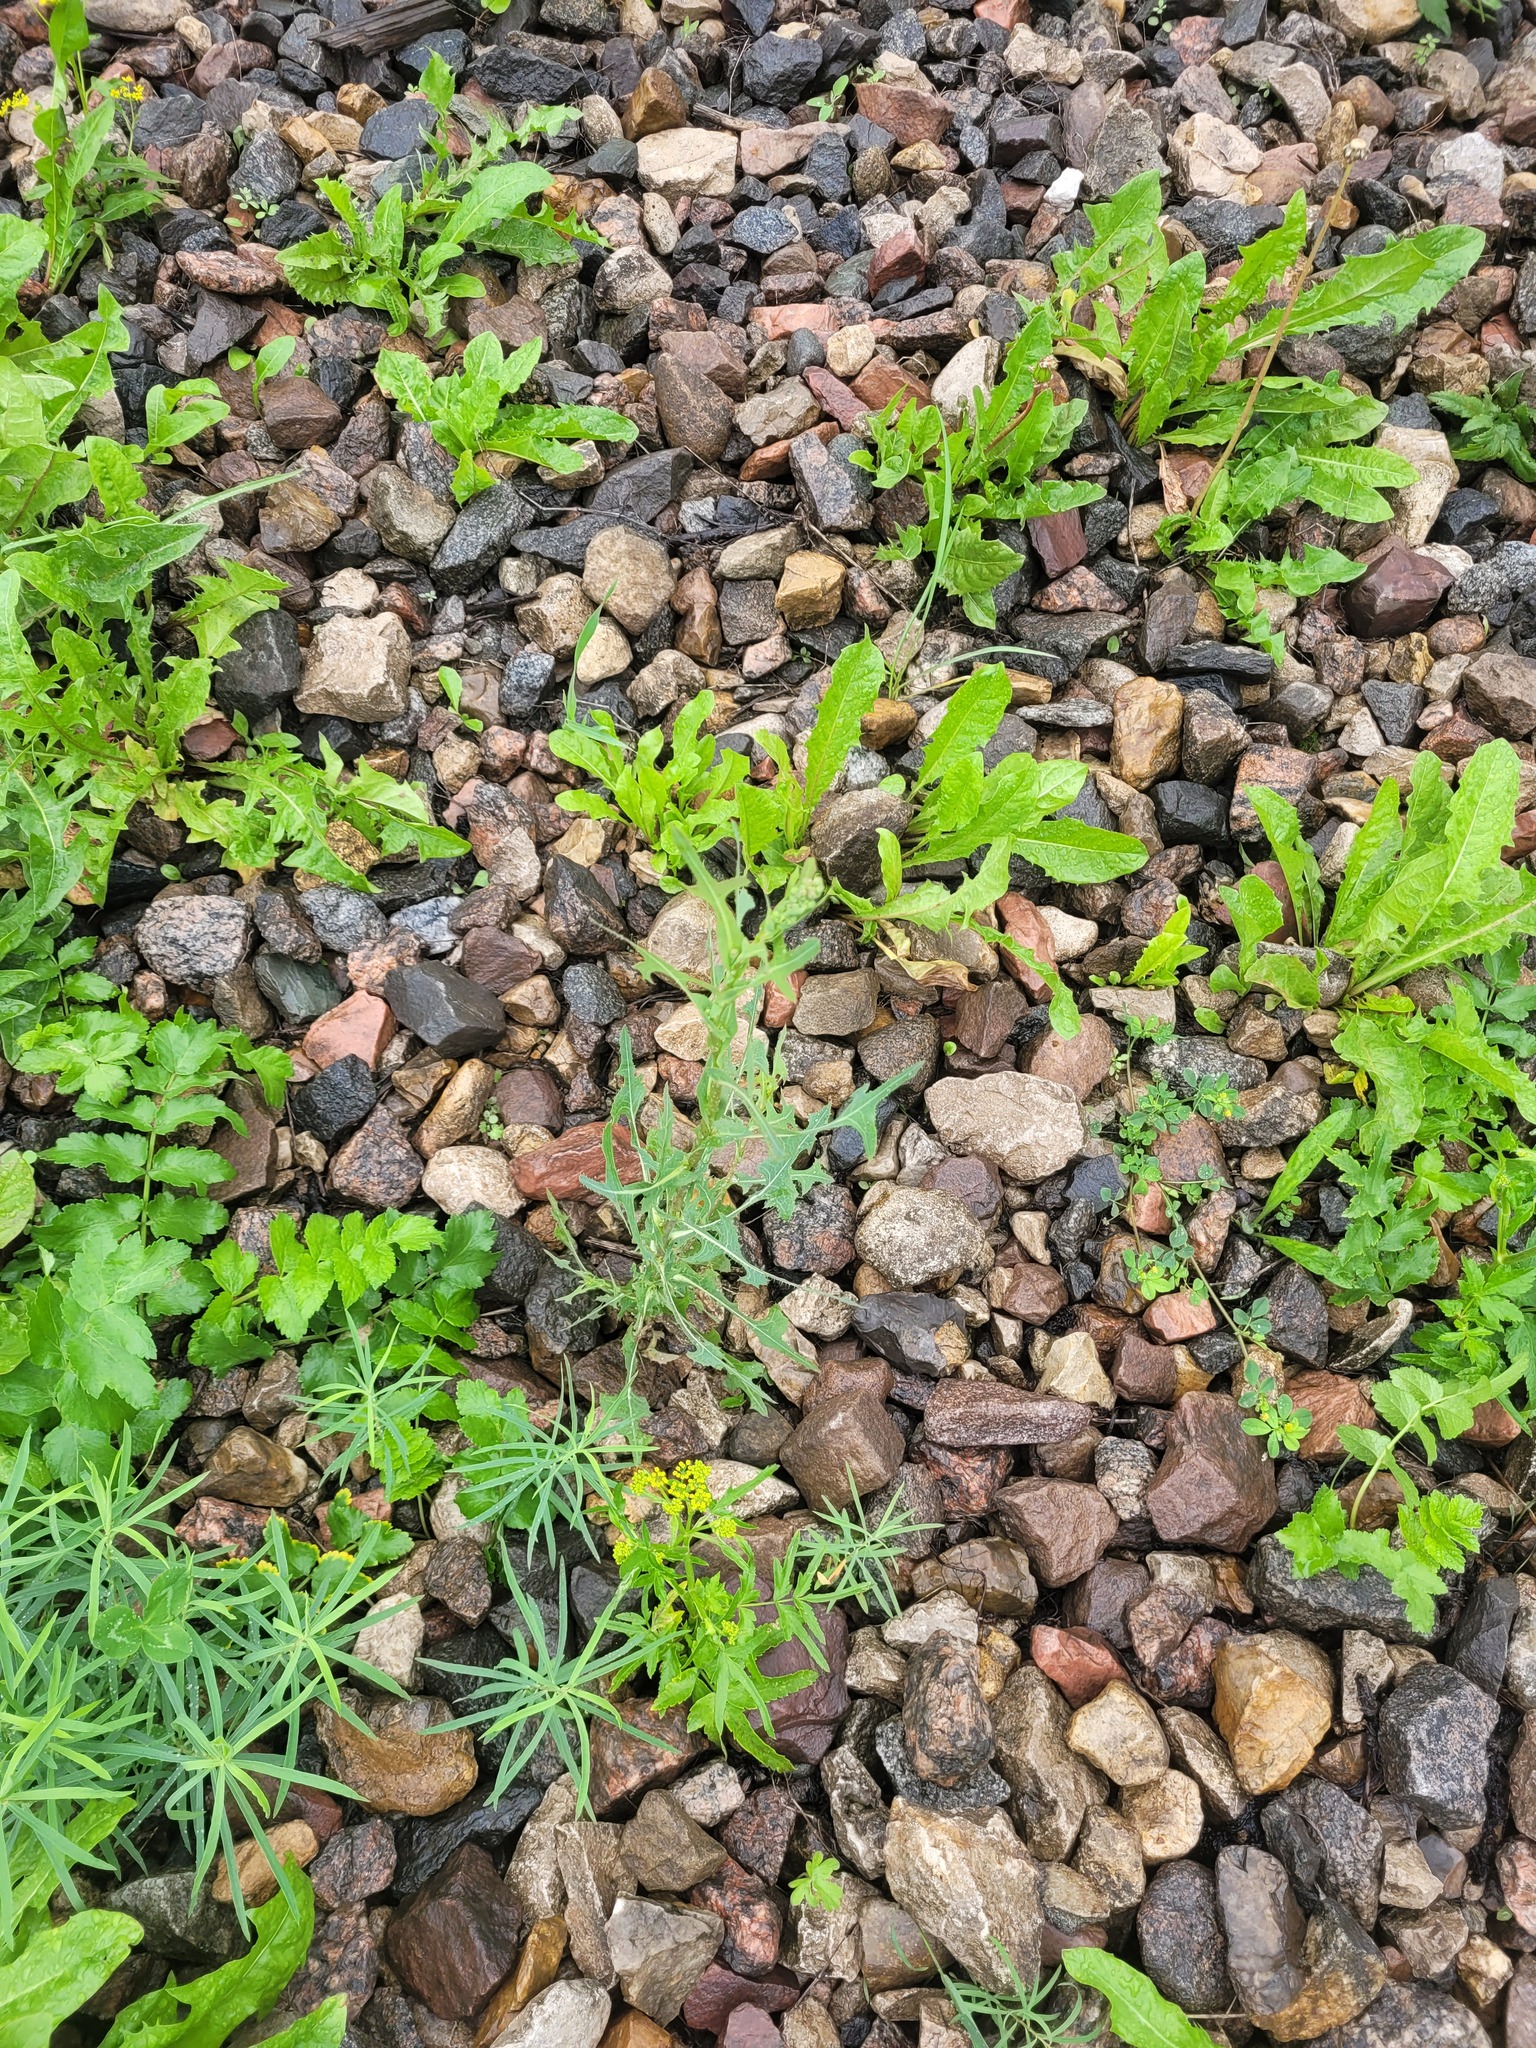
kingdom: Plantae
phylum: Tracheophyta
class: Magnoliopsida
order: Asterales
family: Asteraceae
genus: Lactuca
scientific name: Lactuca serriola
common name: Prickly lettuce
